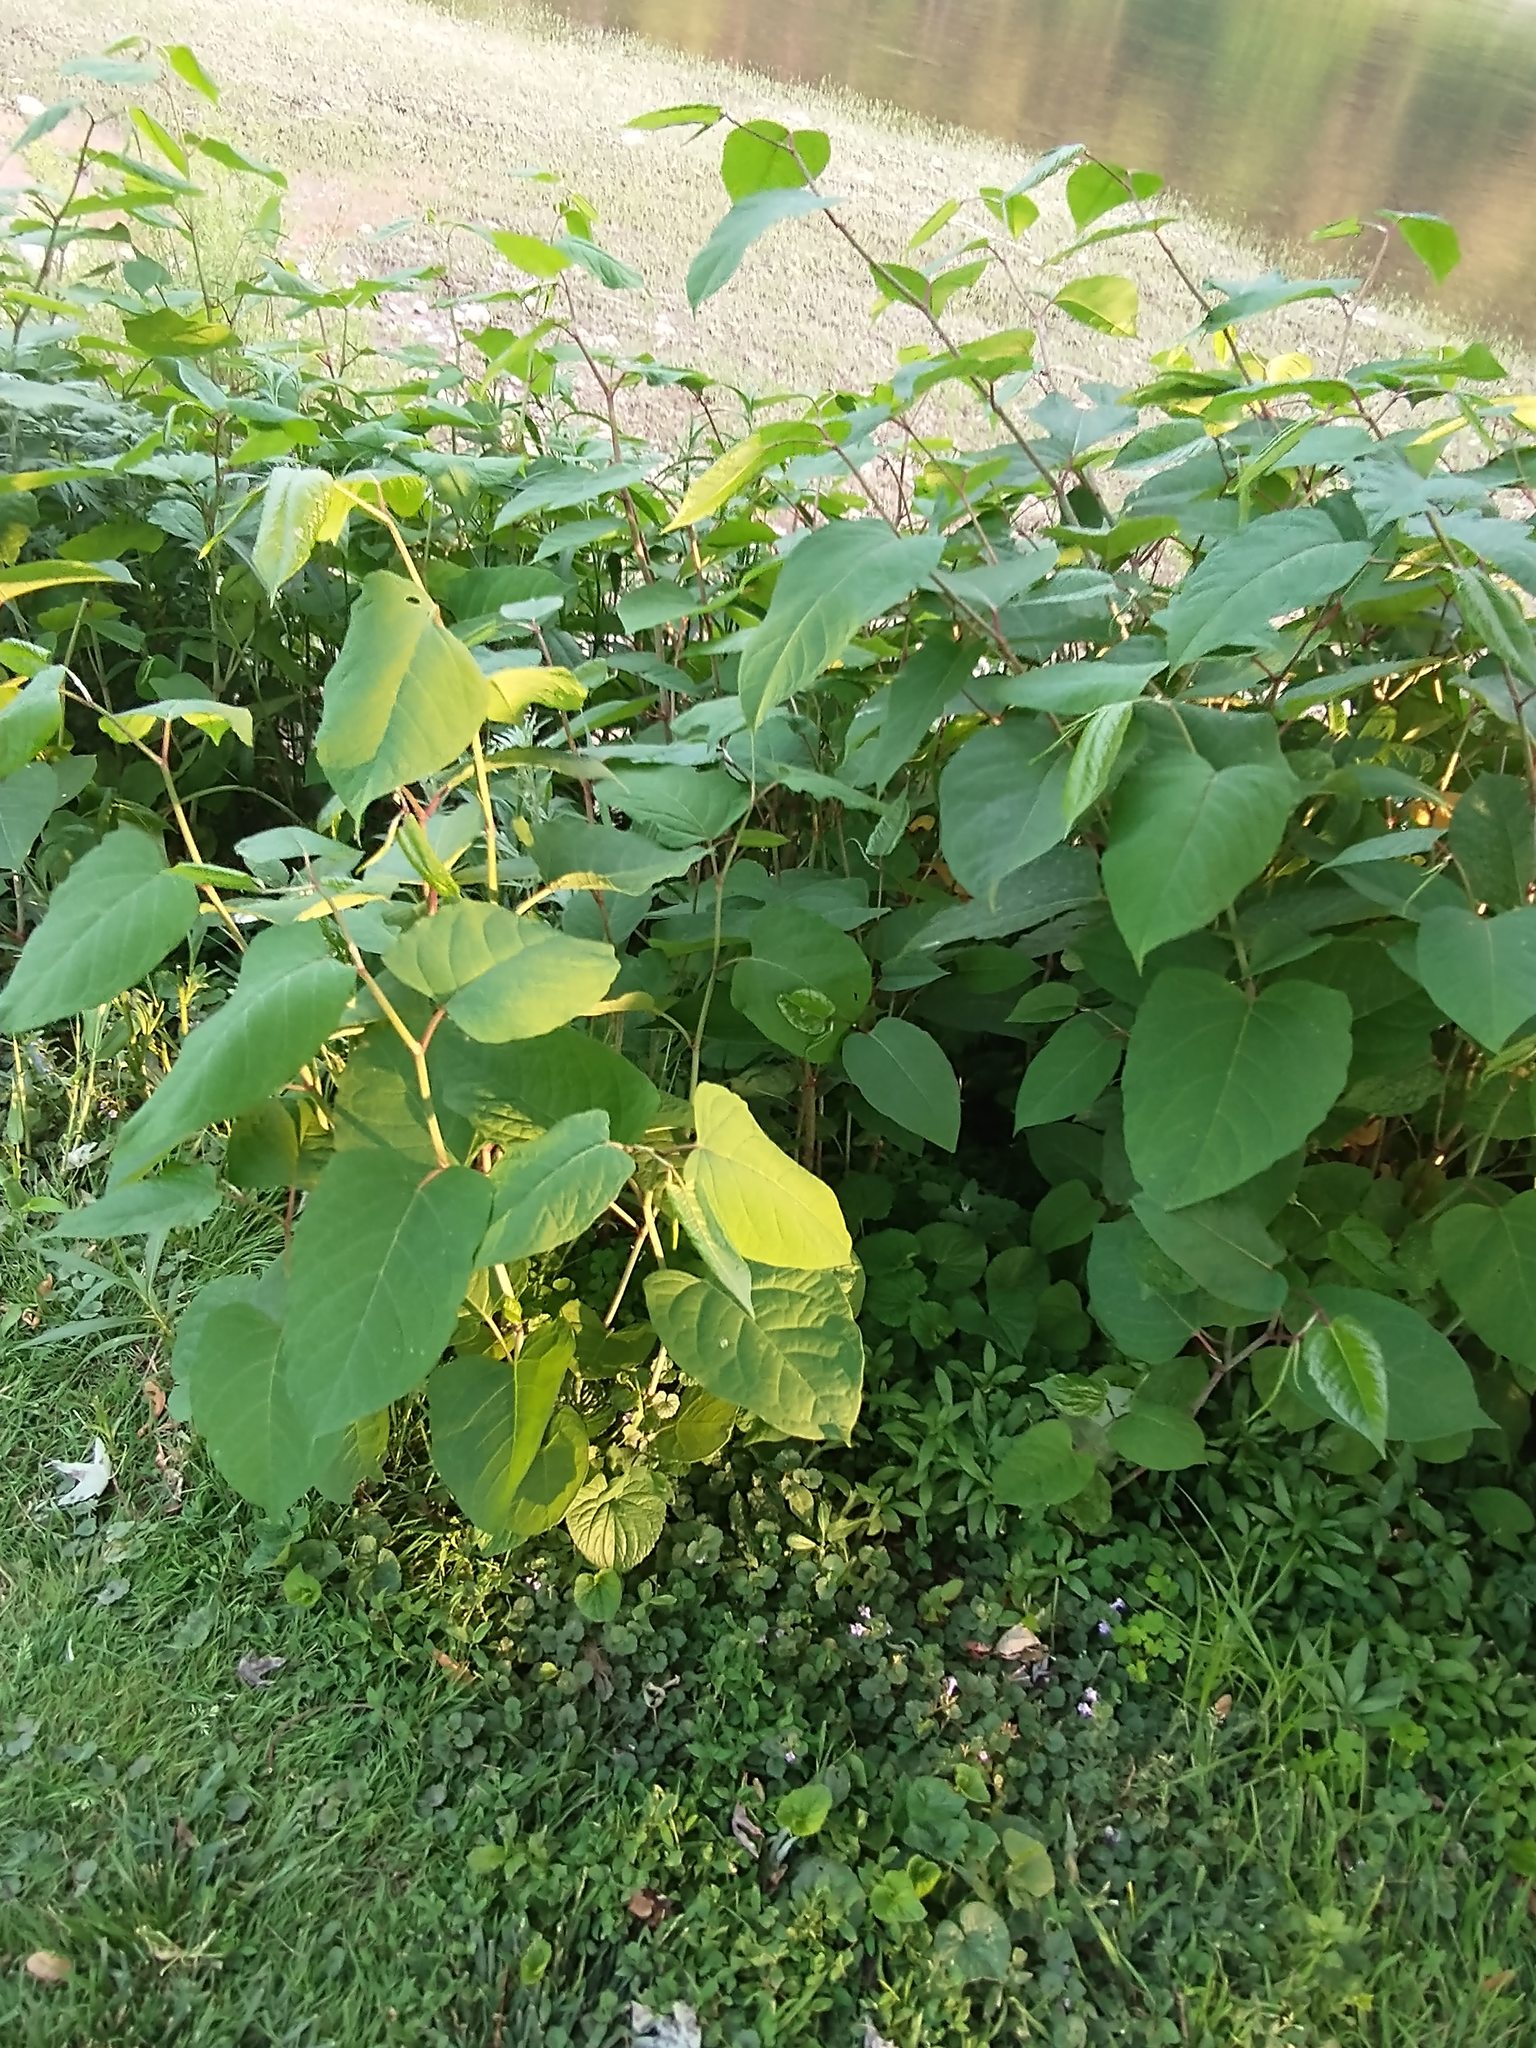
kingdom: Plantae
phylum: Tracheophyta
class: Magnoliopsida
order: Caryophyllales
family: Polygonaceae
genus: Reynoutria
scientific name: Reynoutria japonica
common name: Japanese knotweed
